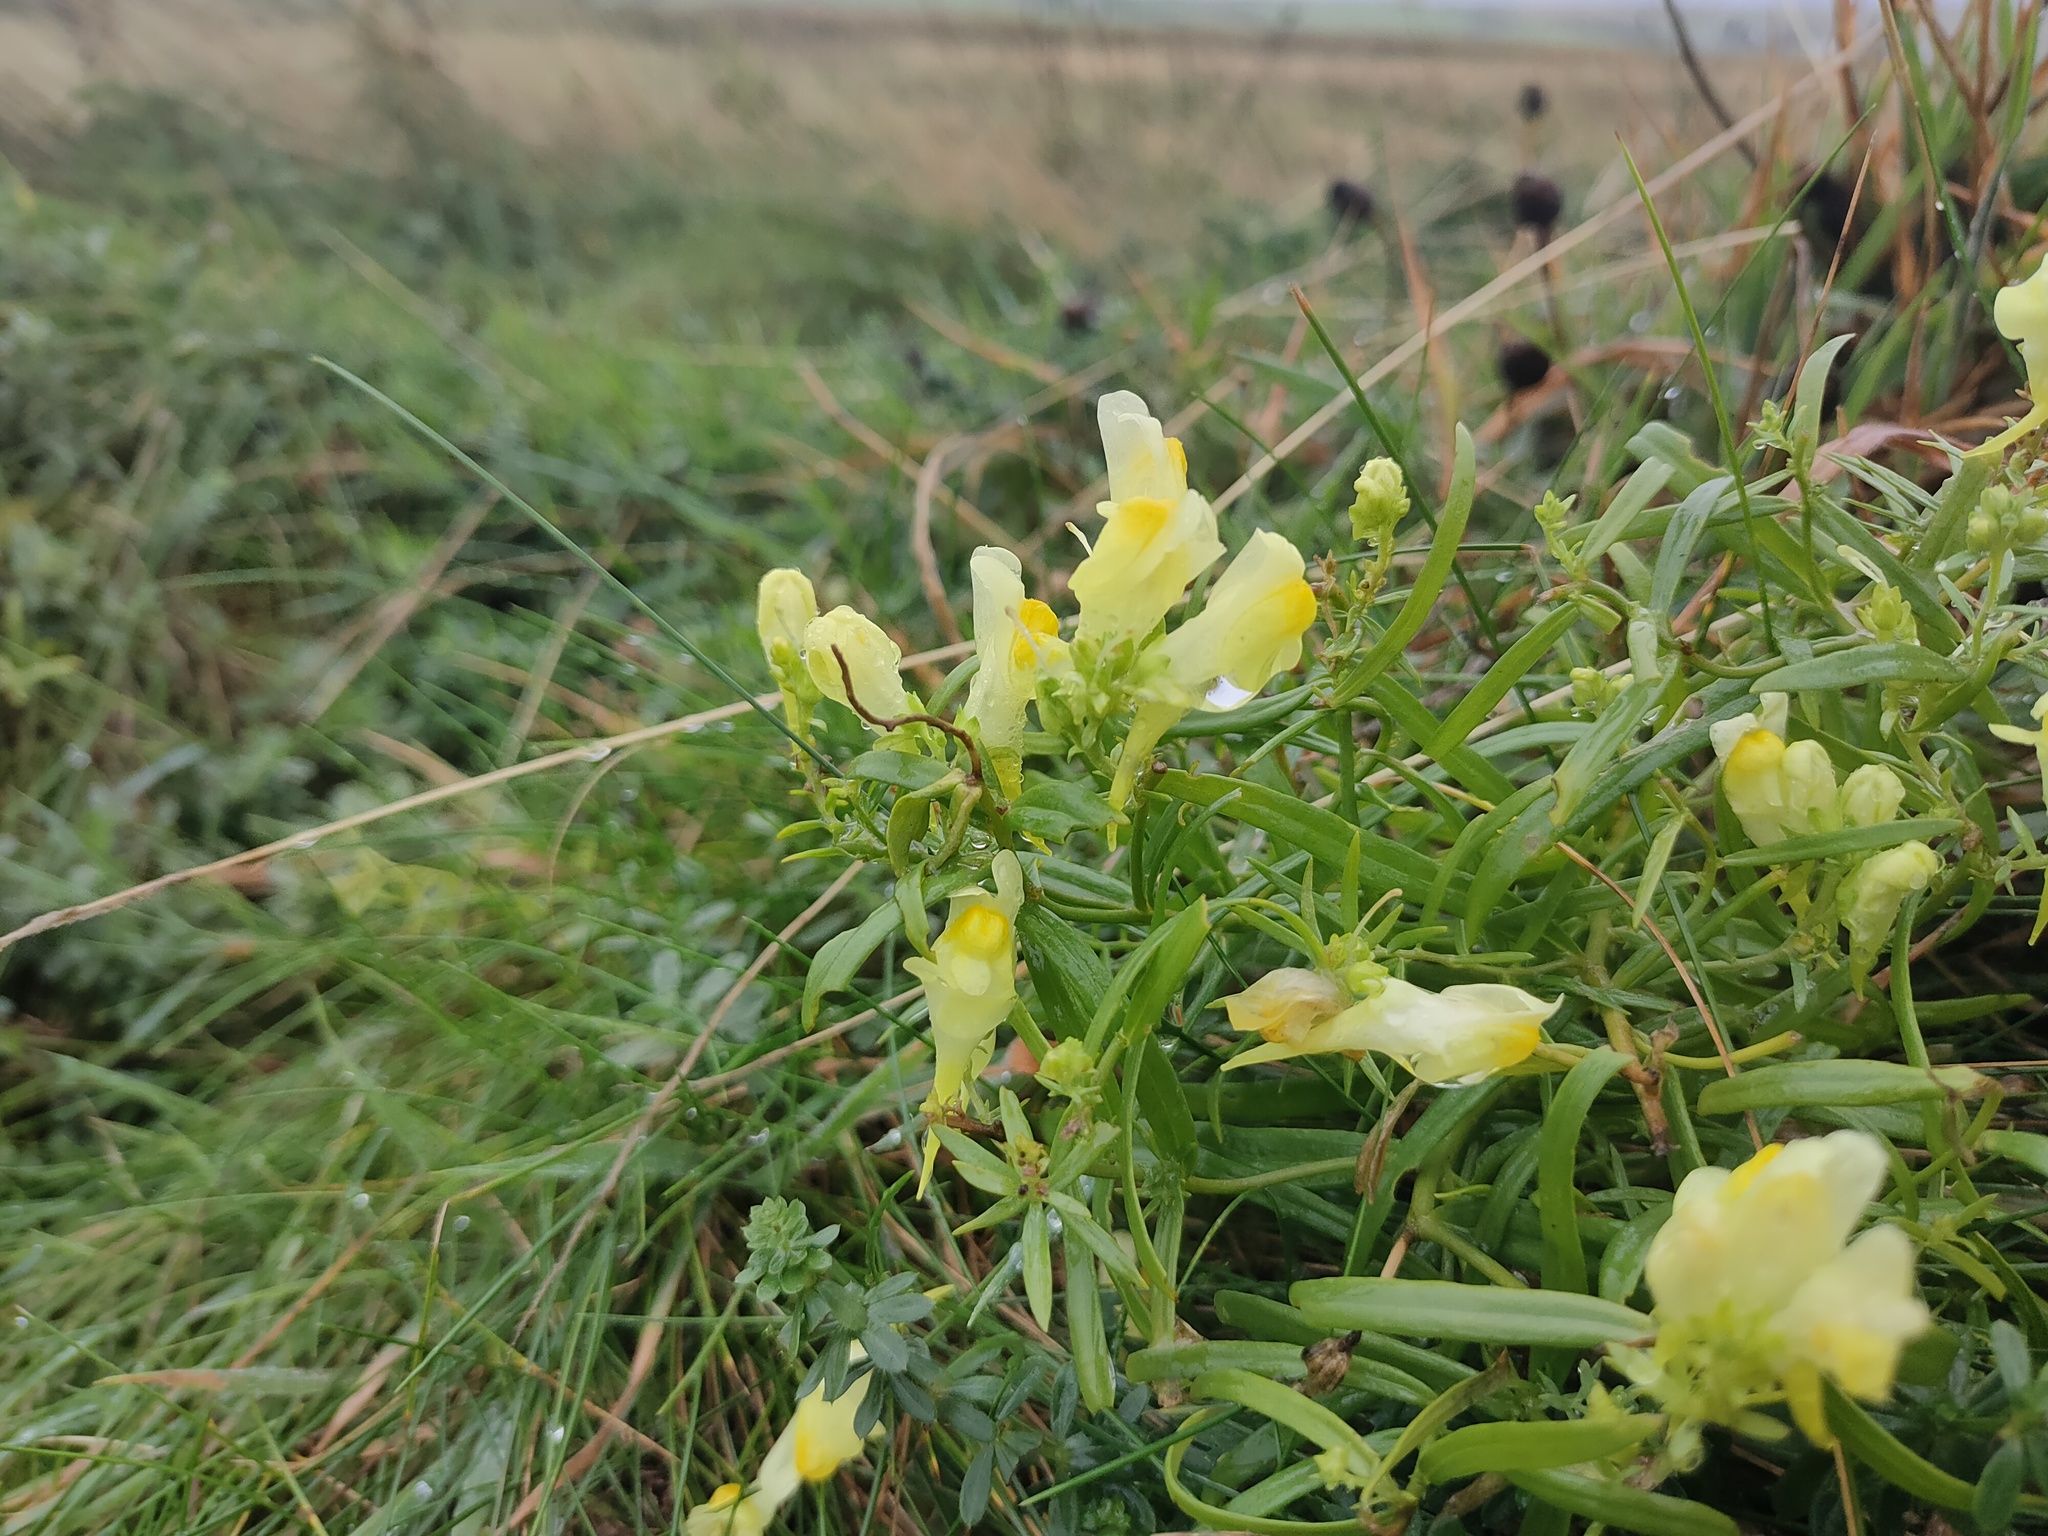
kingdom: Plantae
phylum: Tracheophyta
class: Magnoliopsida
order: Lamiales
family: Plantaginaceae
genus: Linaria
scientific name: Linaria vulgaris
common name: Butter and eggs
